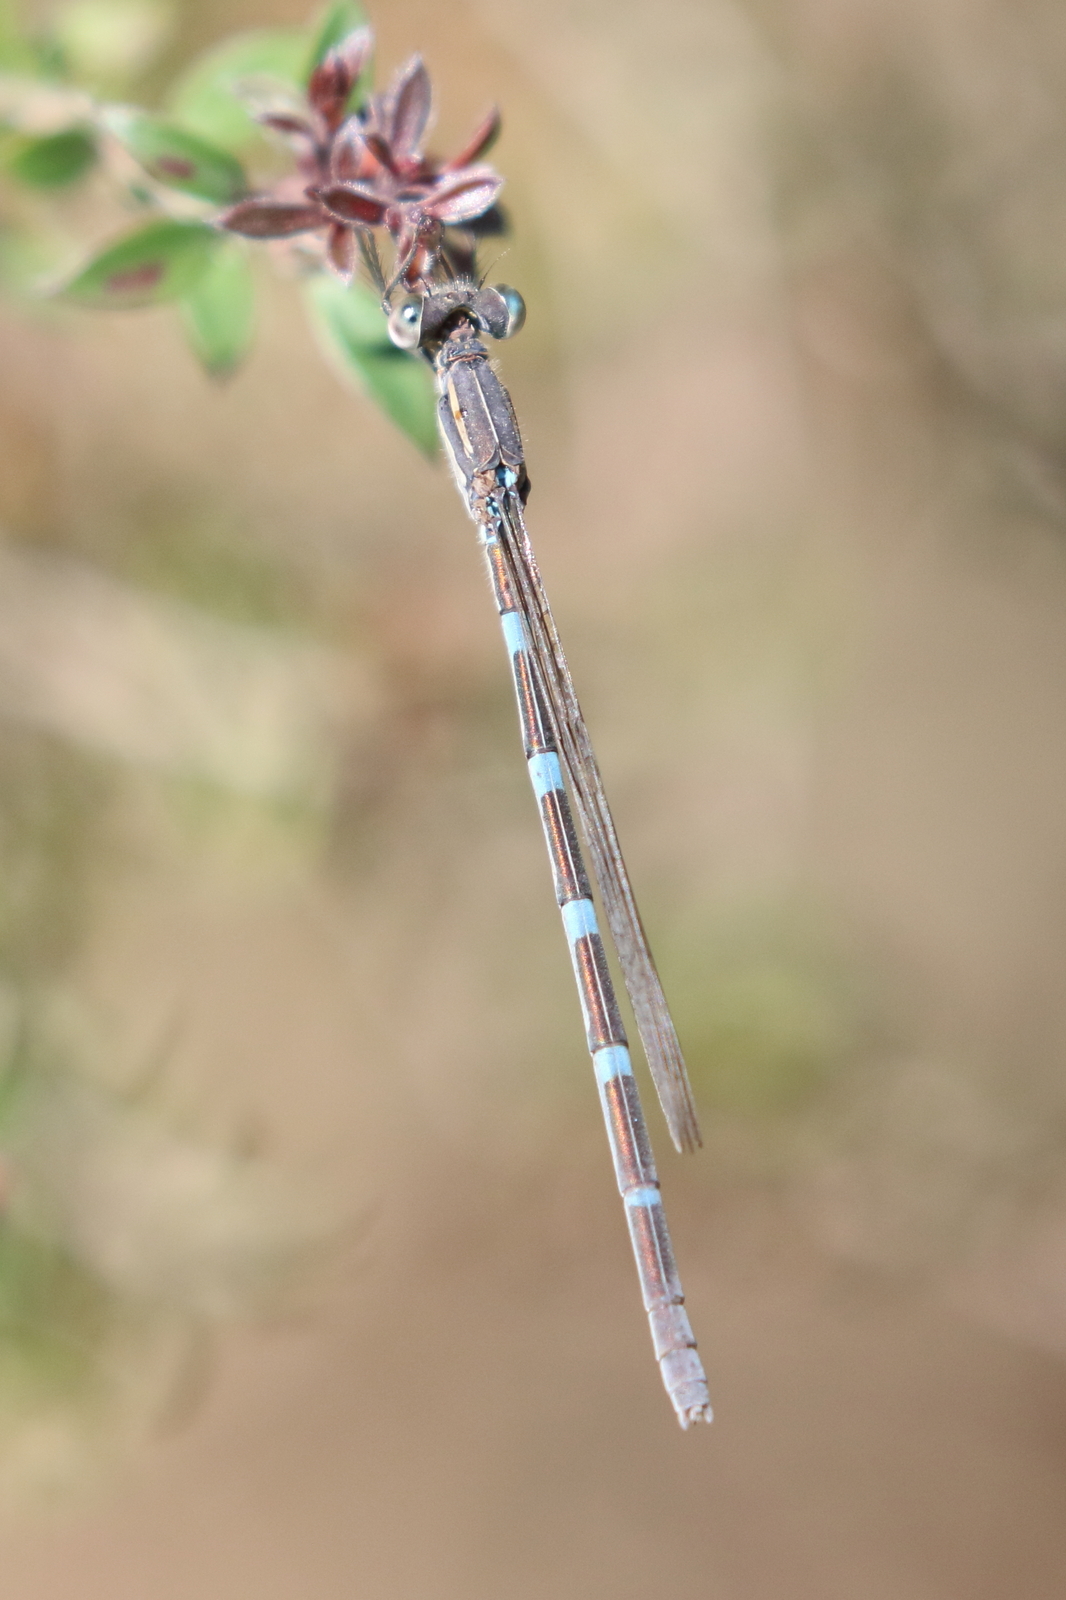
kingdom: Animalia
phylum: Arthropoda
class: Insecta
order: Odonata
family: Lestidae
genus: Austrolestes
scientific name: Austrolestes leda
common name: Wandering ringtail
